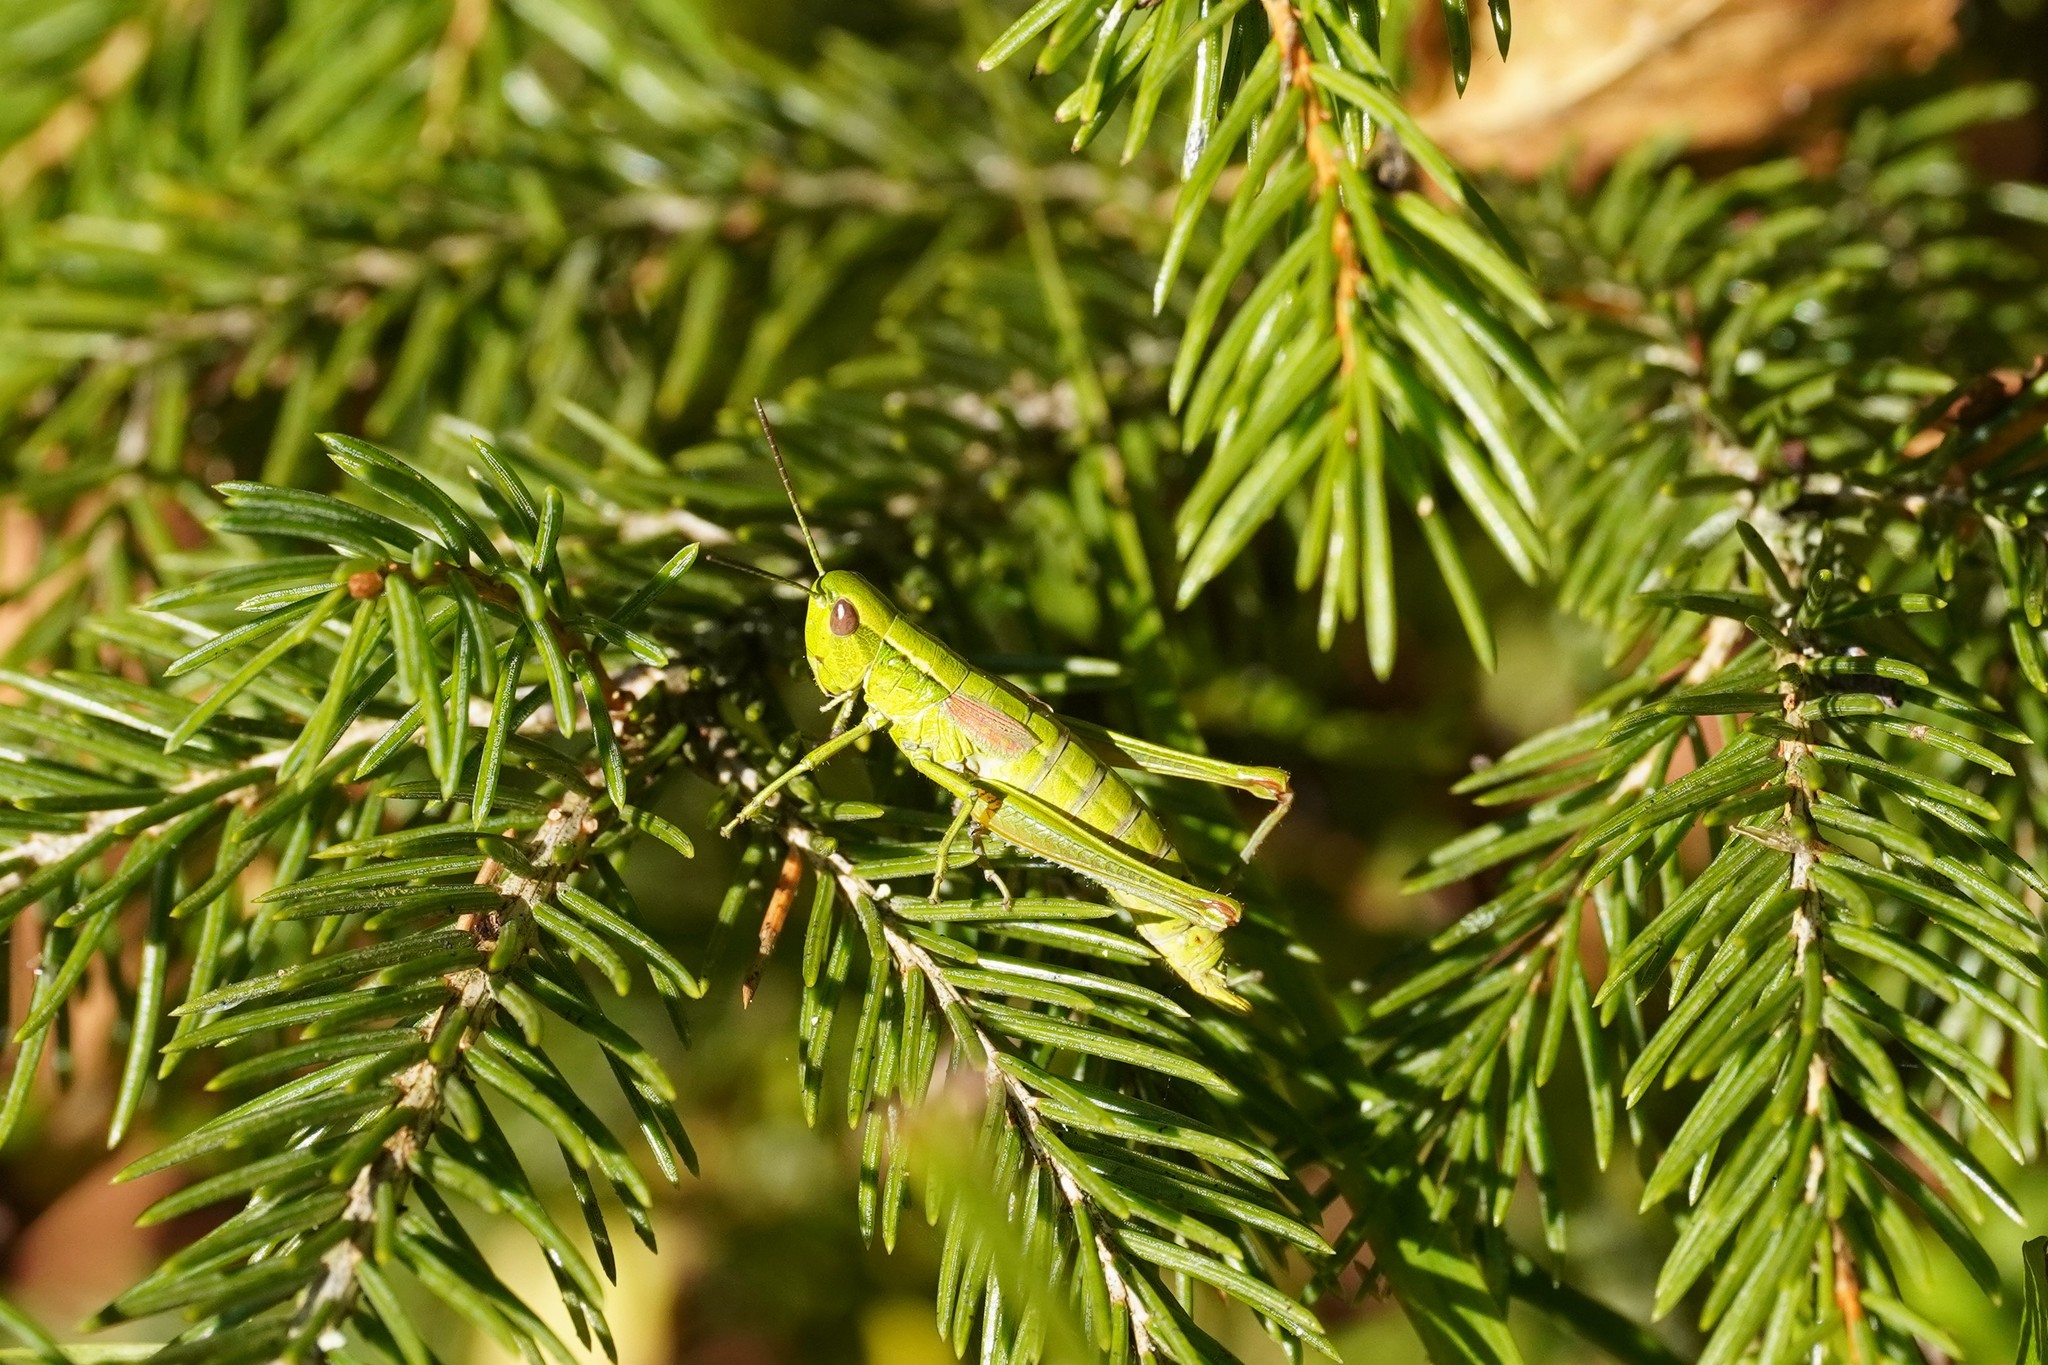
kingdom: Animalia
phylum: Arthropoda
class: Insecta
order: Orthoptera
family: Acrididae
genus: Euthystira
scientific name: Euthystira brachyptera
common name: Small gold grasshopper
